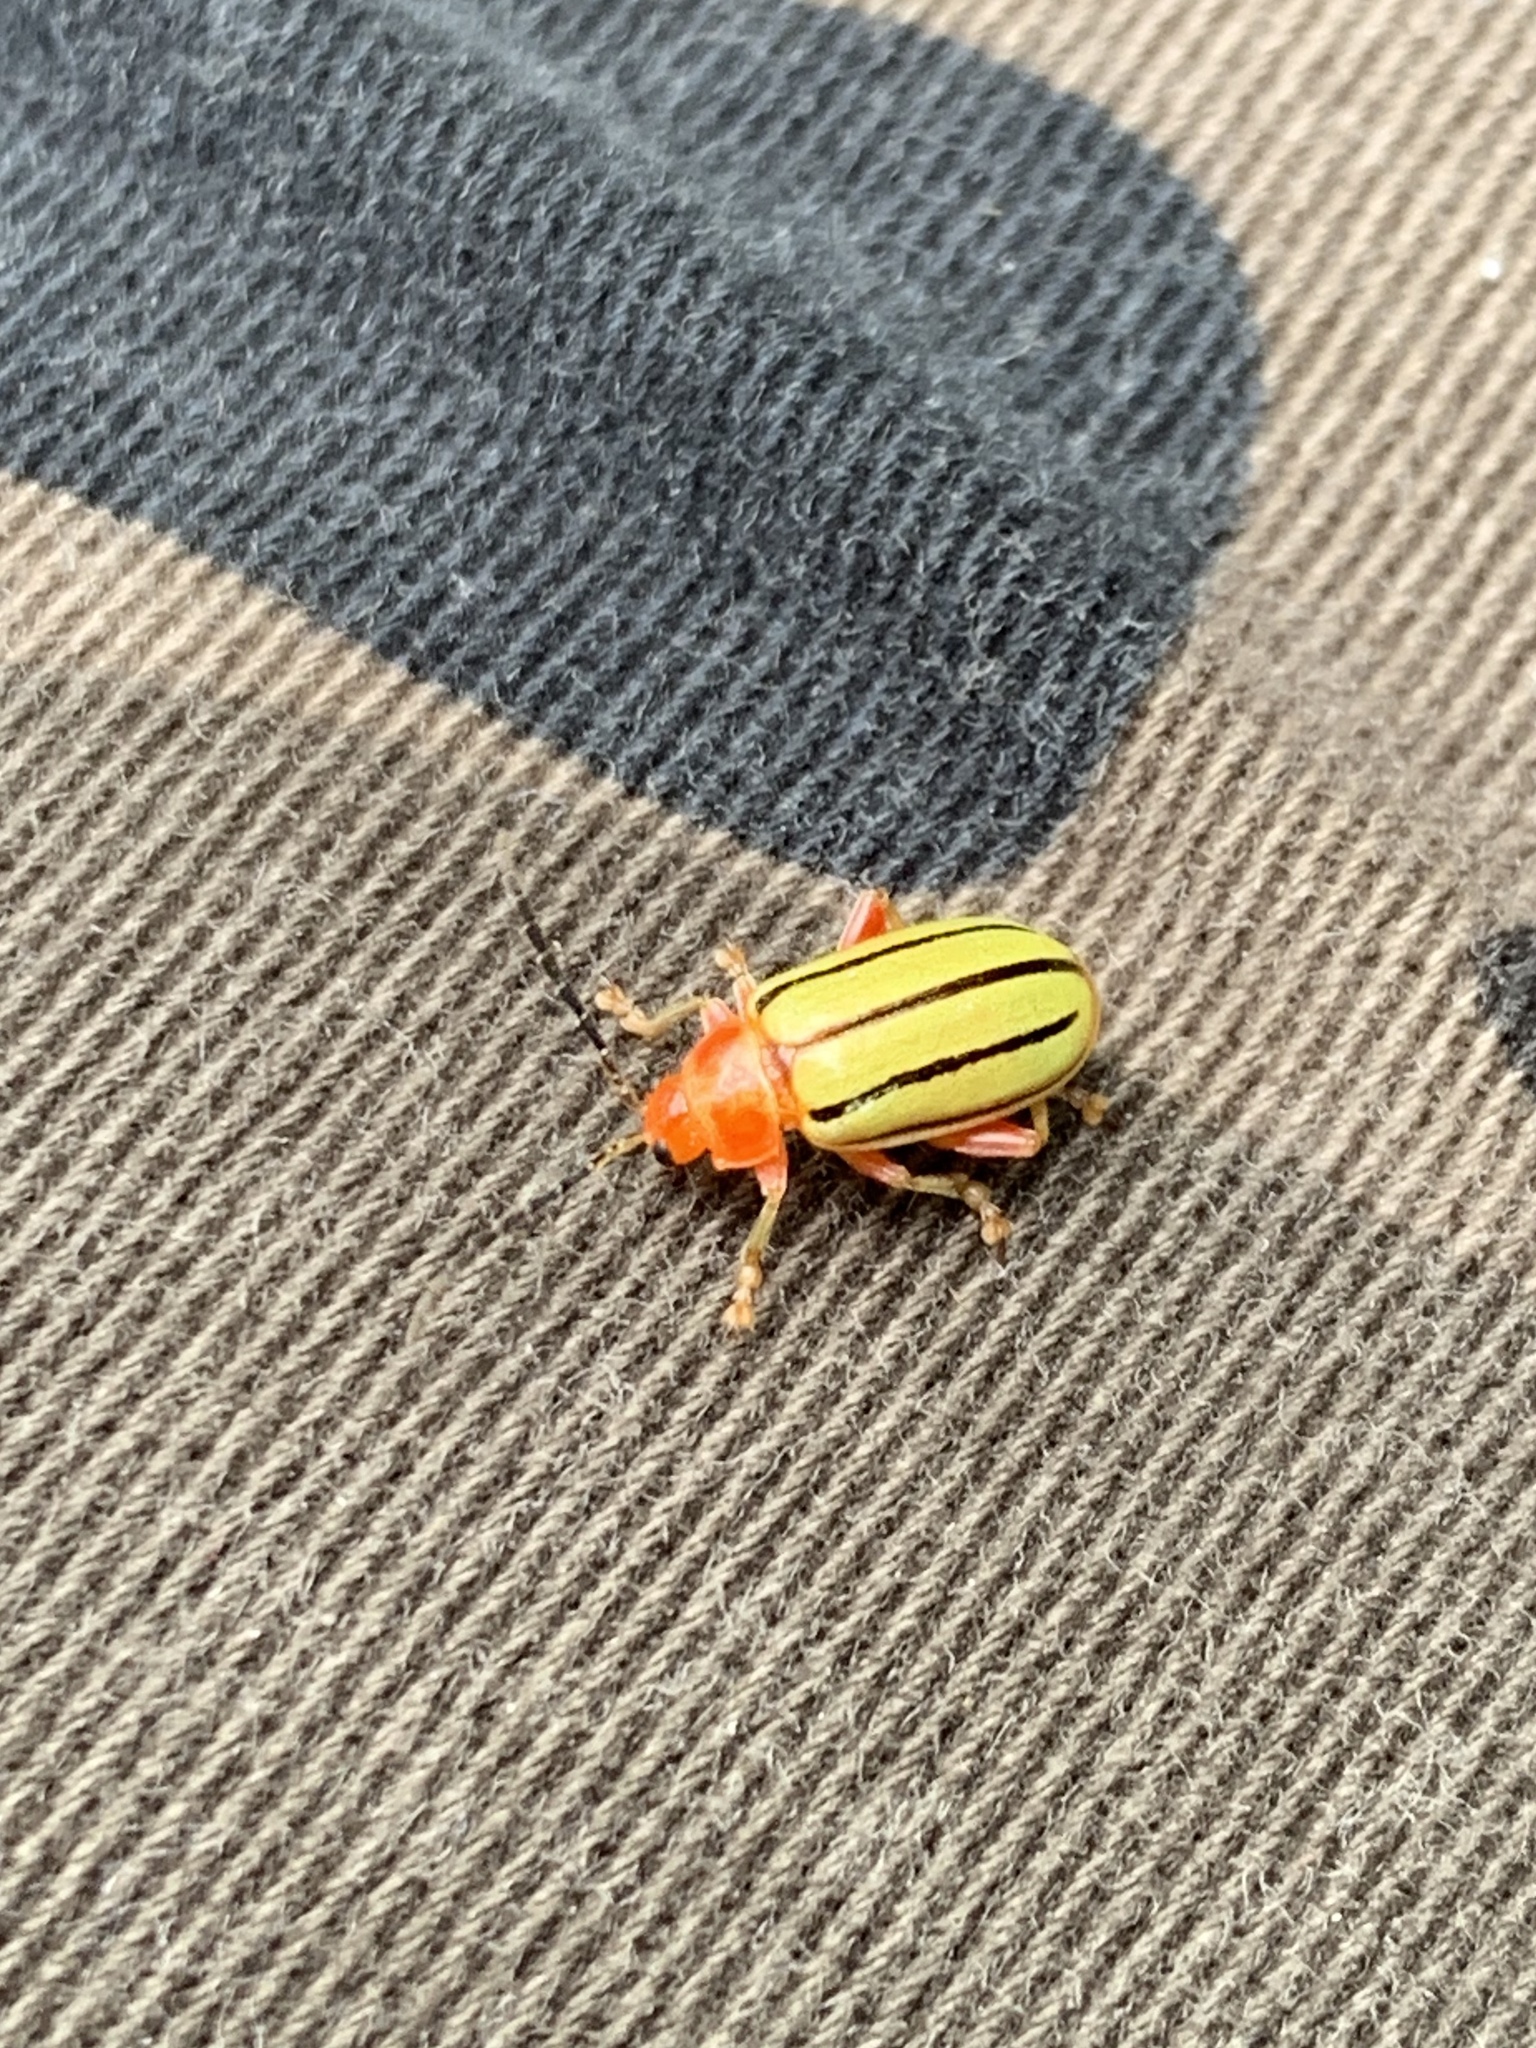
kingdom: Animalia
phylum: Arthropoda
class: Insecta
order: Coleoptera
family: Chrysomelidae
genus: Disonycha
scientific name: Disonycha
